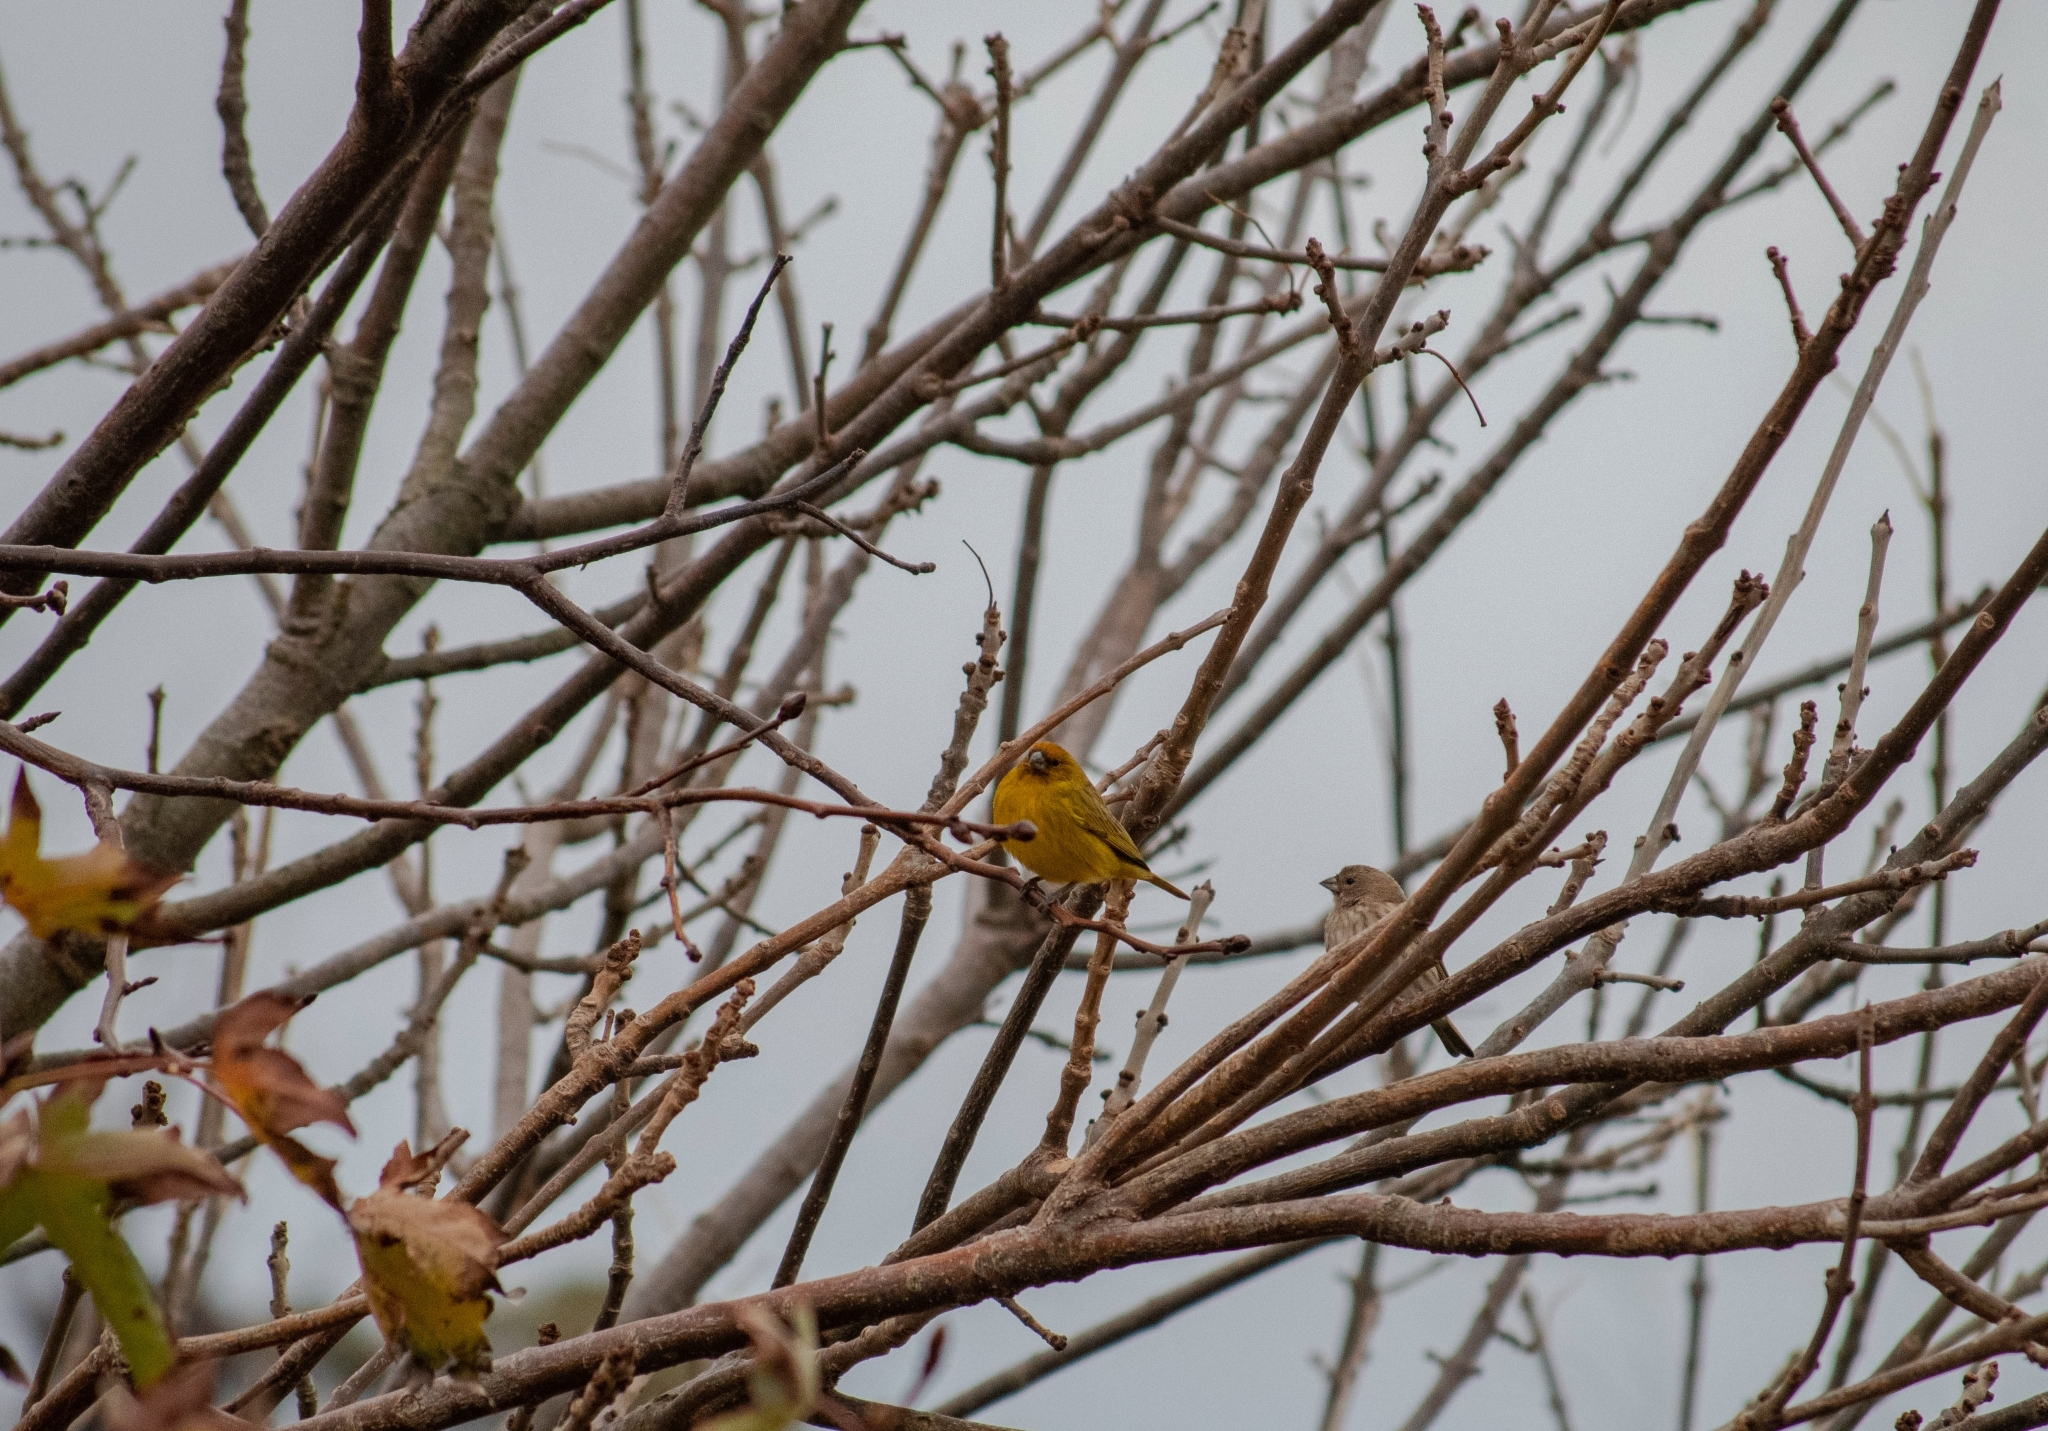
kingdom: Animalia
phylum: Chordata
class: Aves
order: Passeriformes
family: Thraupidae
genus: Sicalis
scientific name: Sicalis flaveola
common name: Saffron finch
